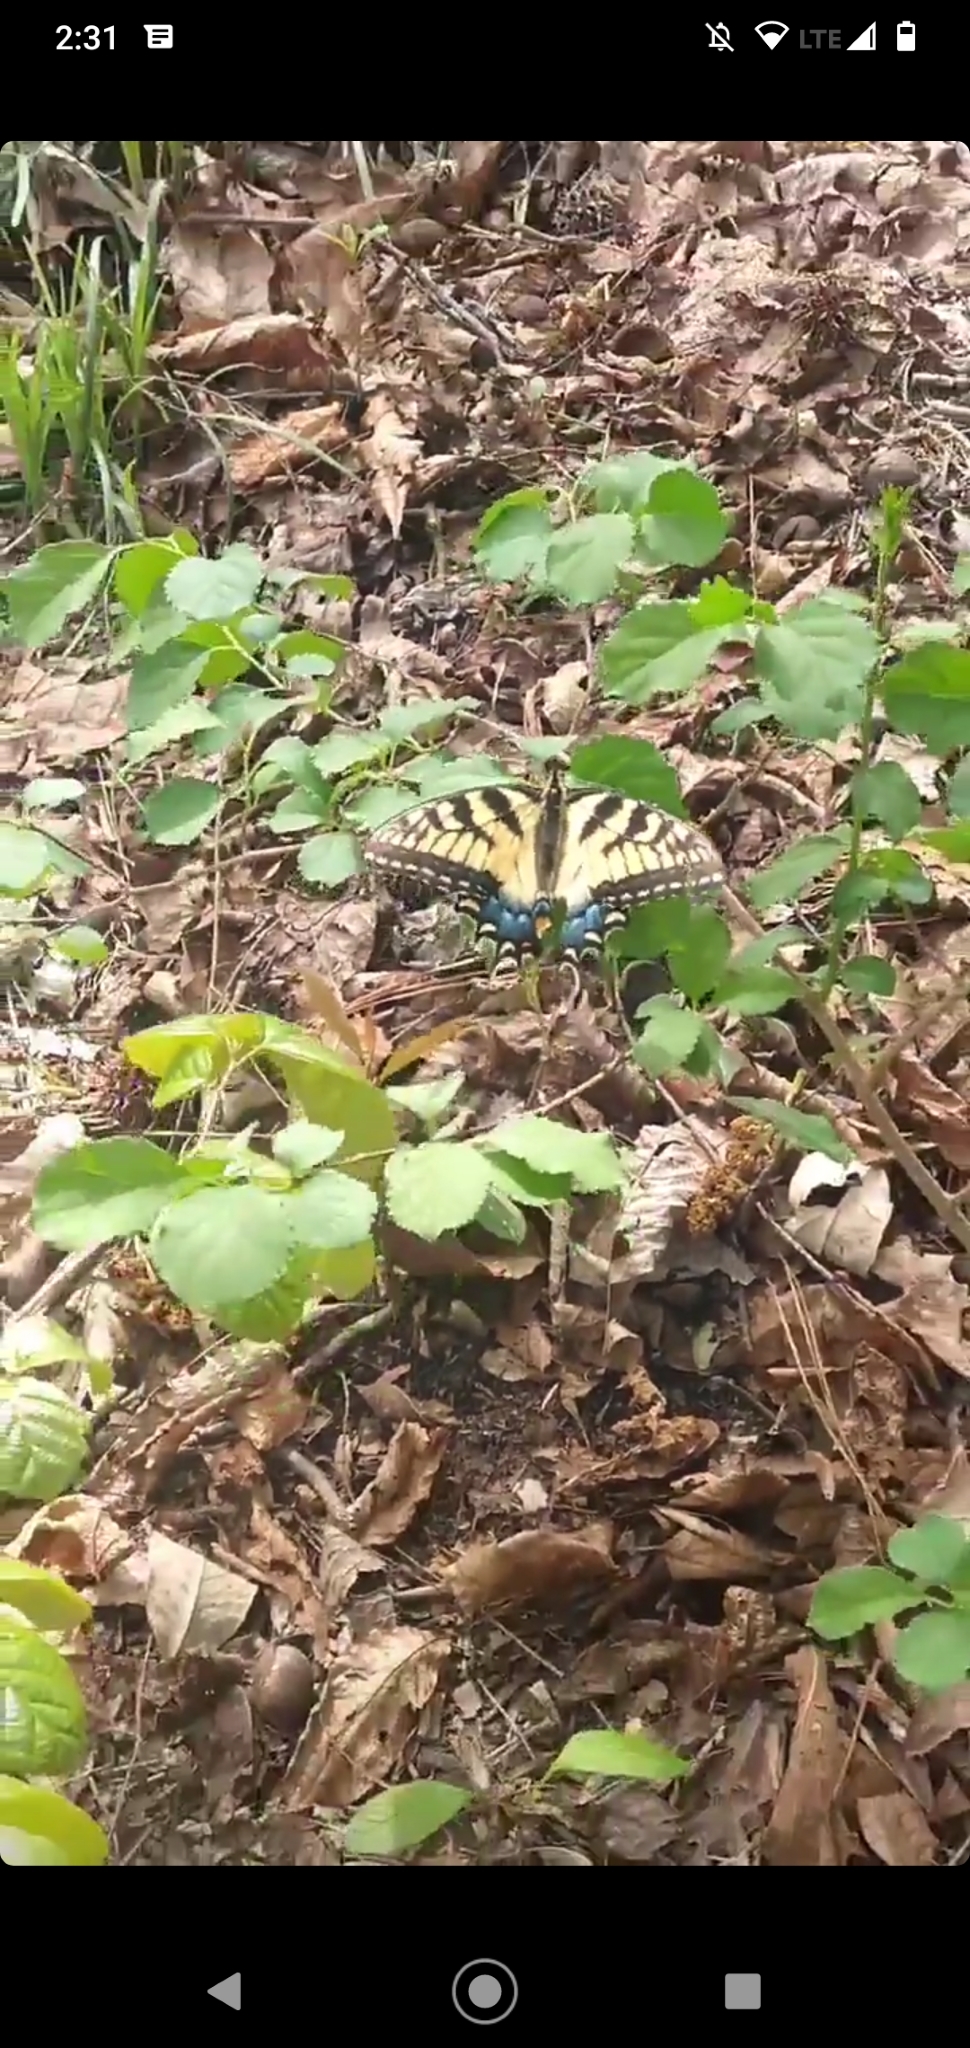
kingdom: Animalia
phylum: Arthropoda
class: Insecta
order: Lepidoptera
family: Papilionidae
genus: Papilio
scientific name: Papilio glaucus
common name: Tiger swallowtail
